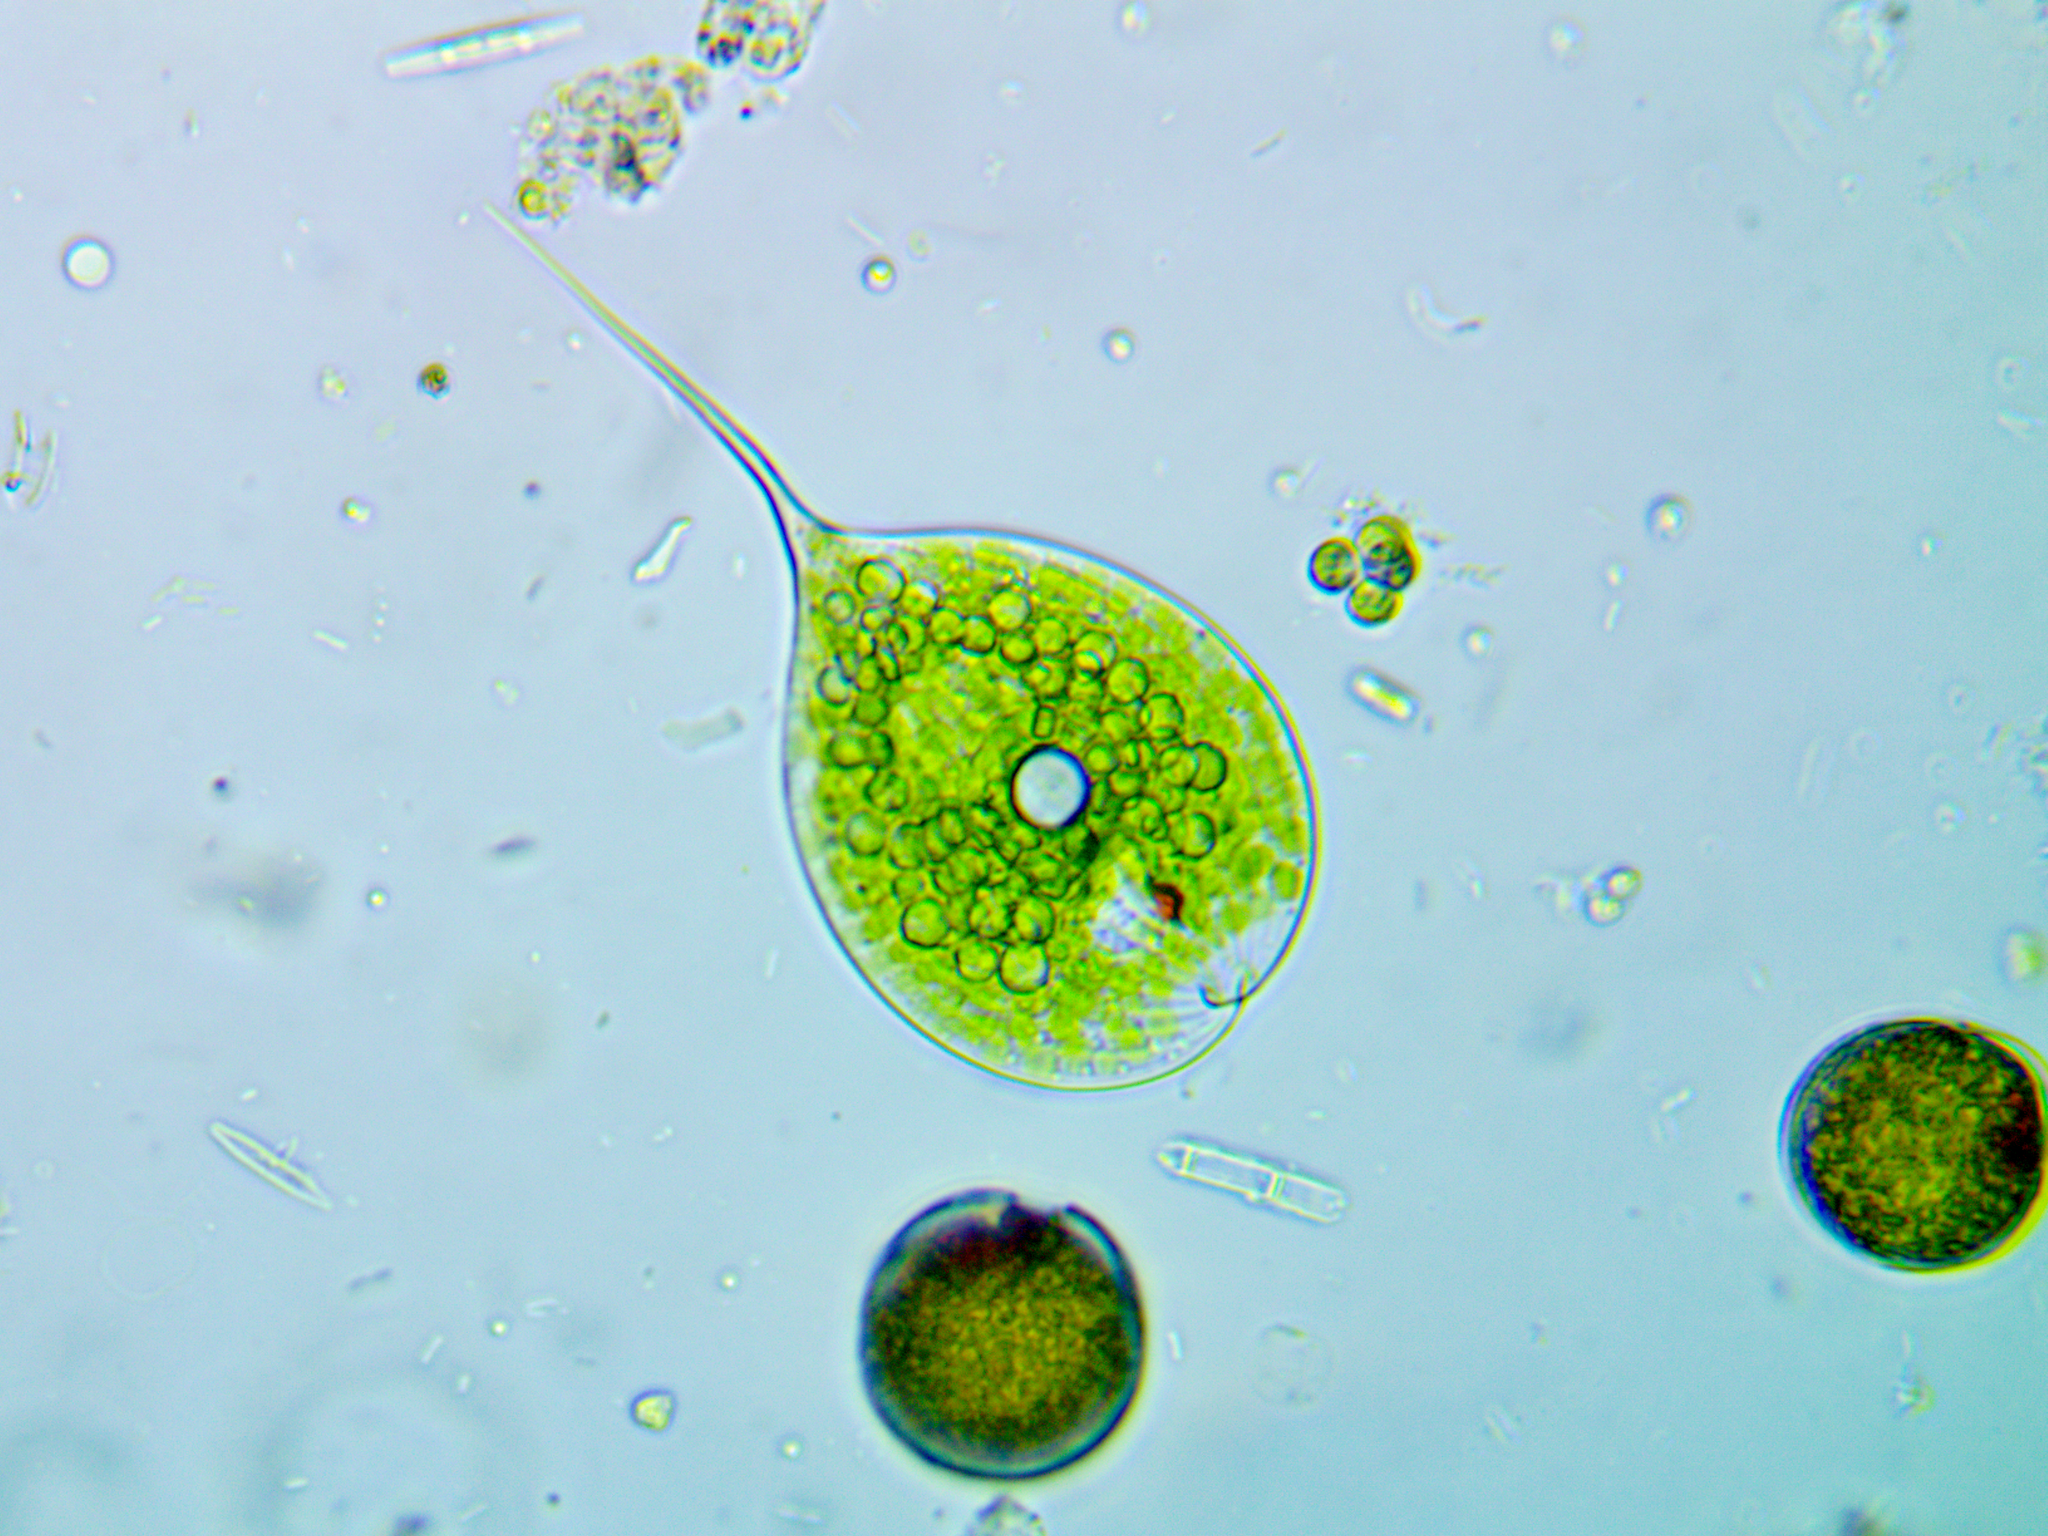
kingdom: Protozoa
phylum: Euglenozoa
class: Euglenoidea
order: Euglenida
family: Phacidae
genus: Phacus
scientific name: Phacus longicauda
